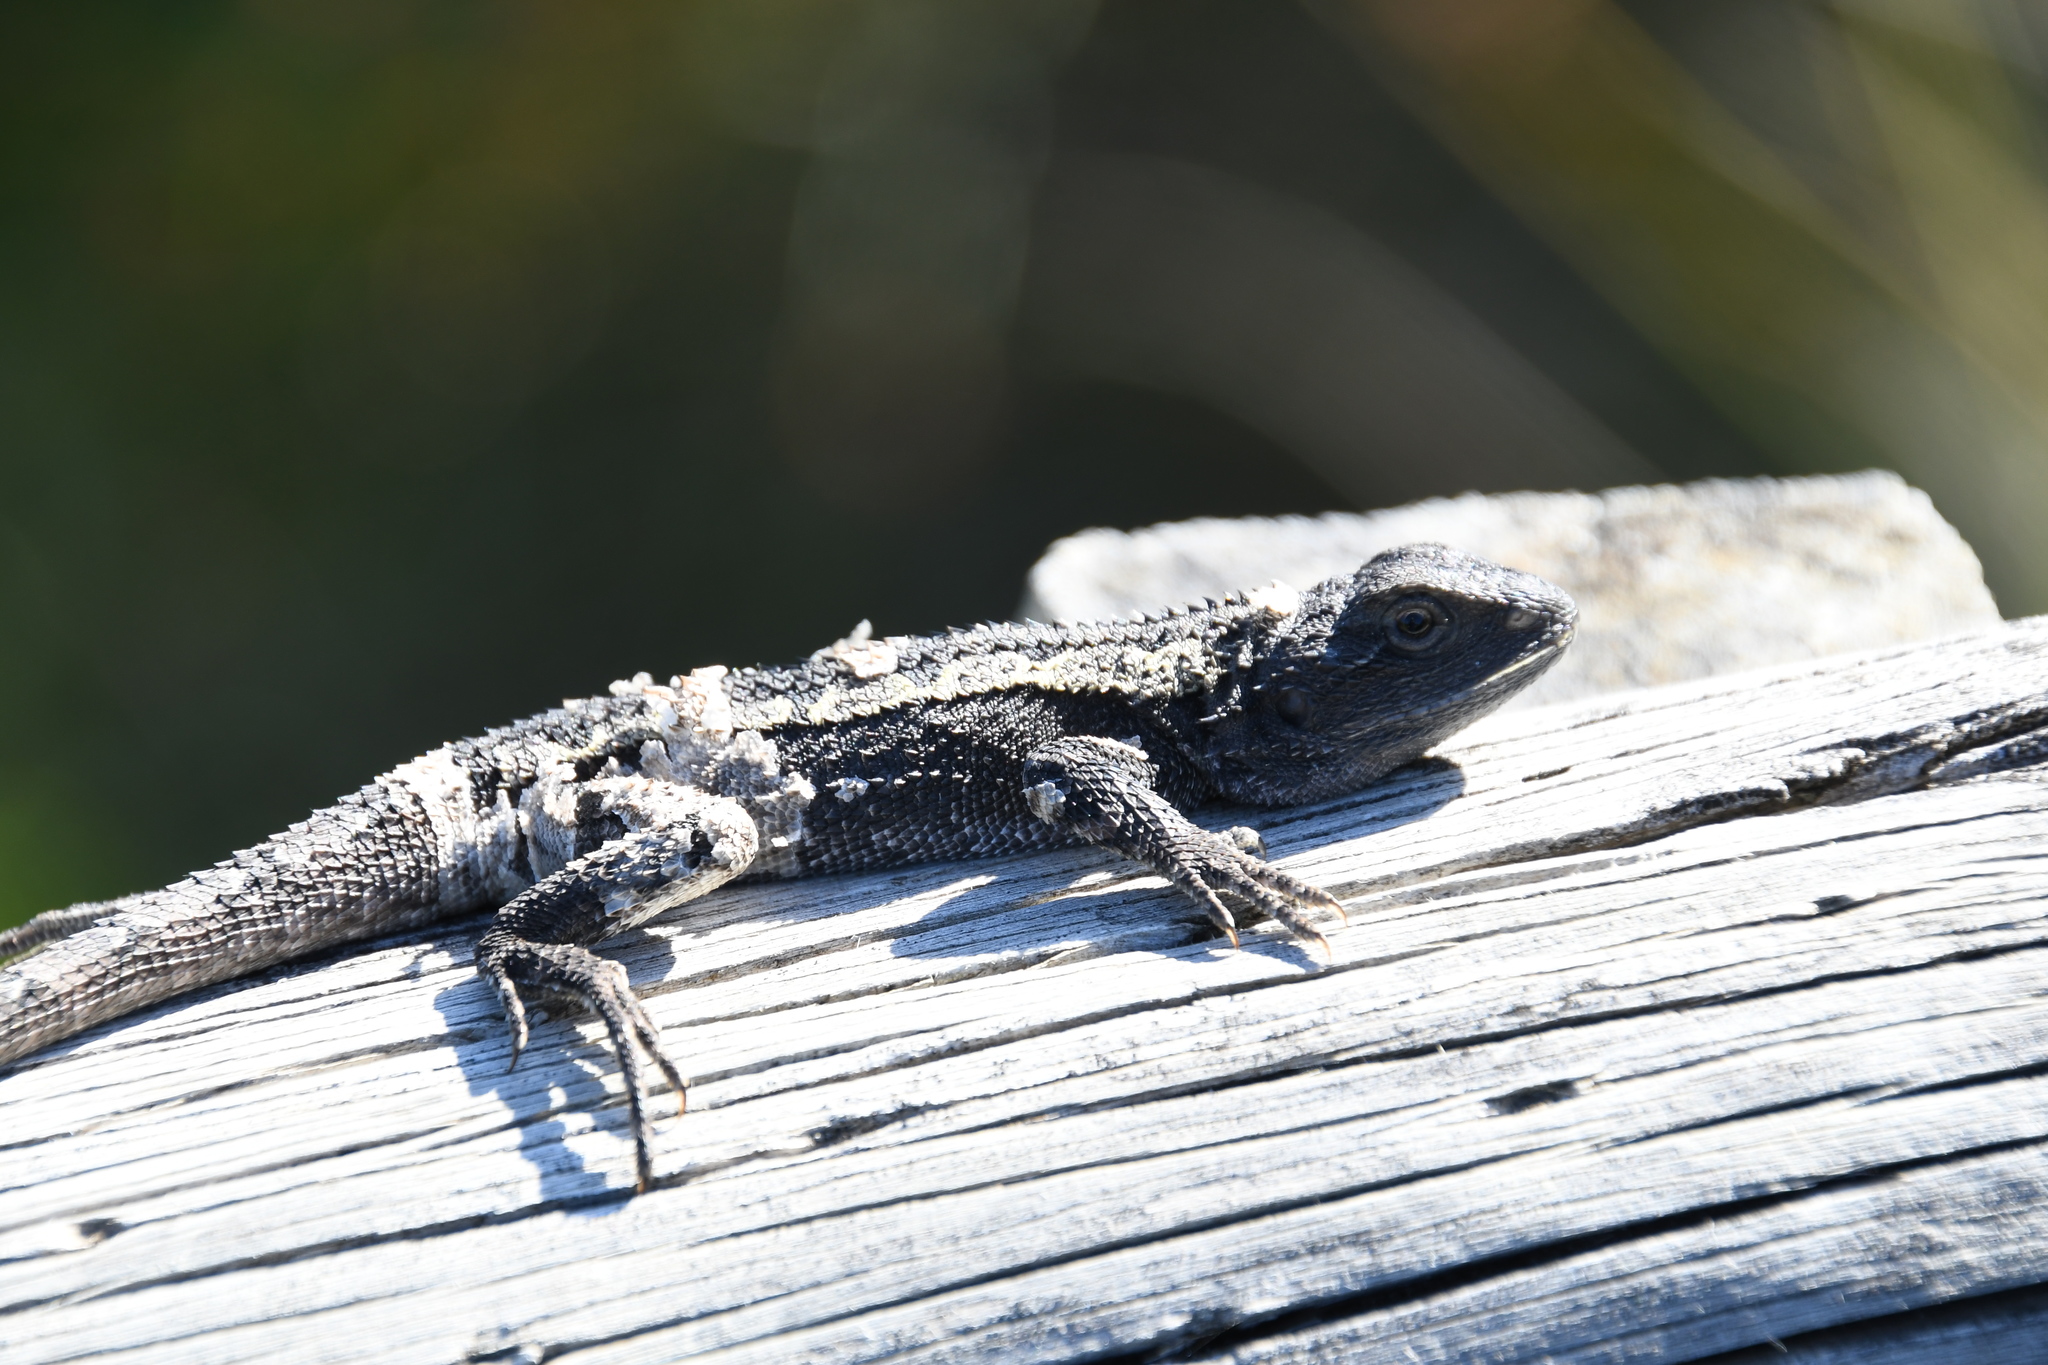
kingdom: Animalia
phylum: Chordata
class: Squamata
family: Agamidae
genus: Amphibolurus
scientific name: Amphibolurus muricatus
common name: Jacky lizard
